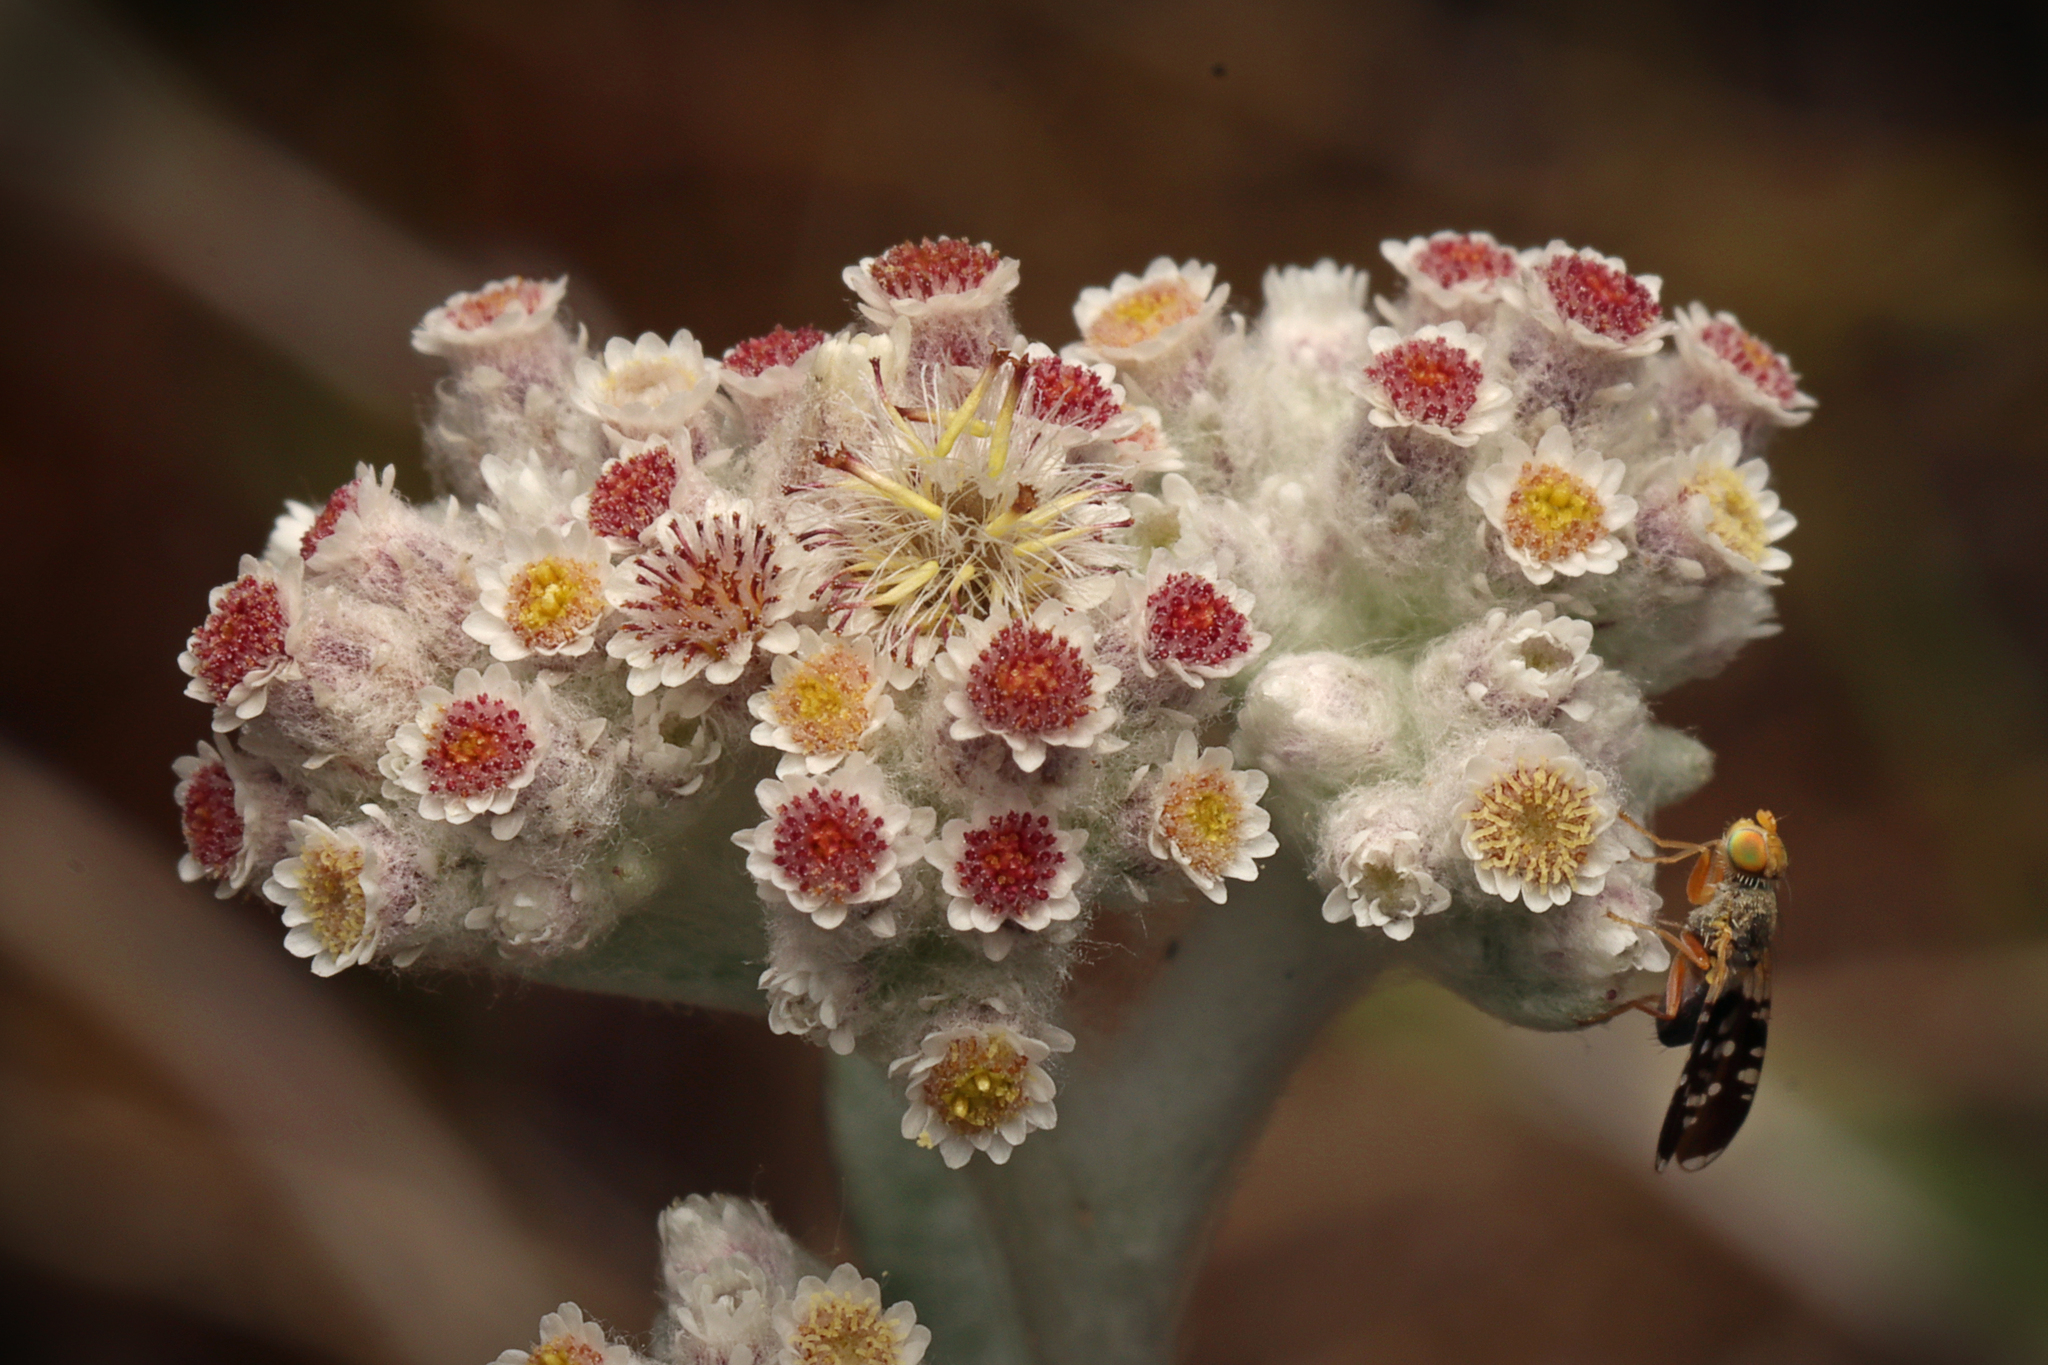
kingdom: Plantae
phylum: Tracheophyta
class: Magnoliopsida
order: Asterales
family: Asteraceae
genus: Vellereophyton
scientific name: Vellereophyton dealbatum
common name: White-cudweed
